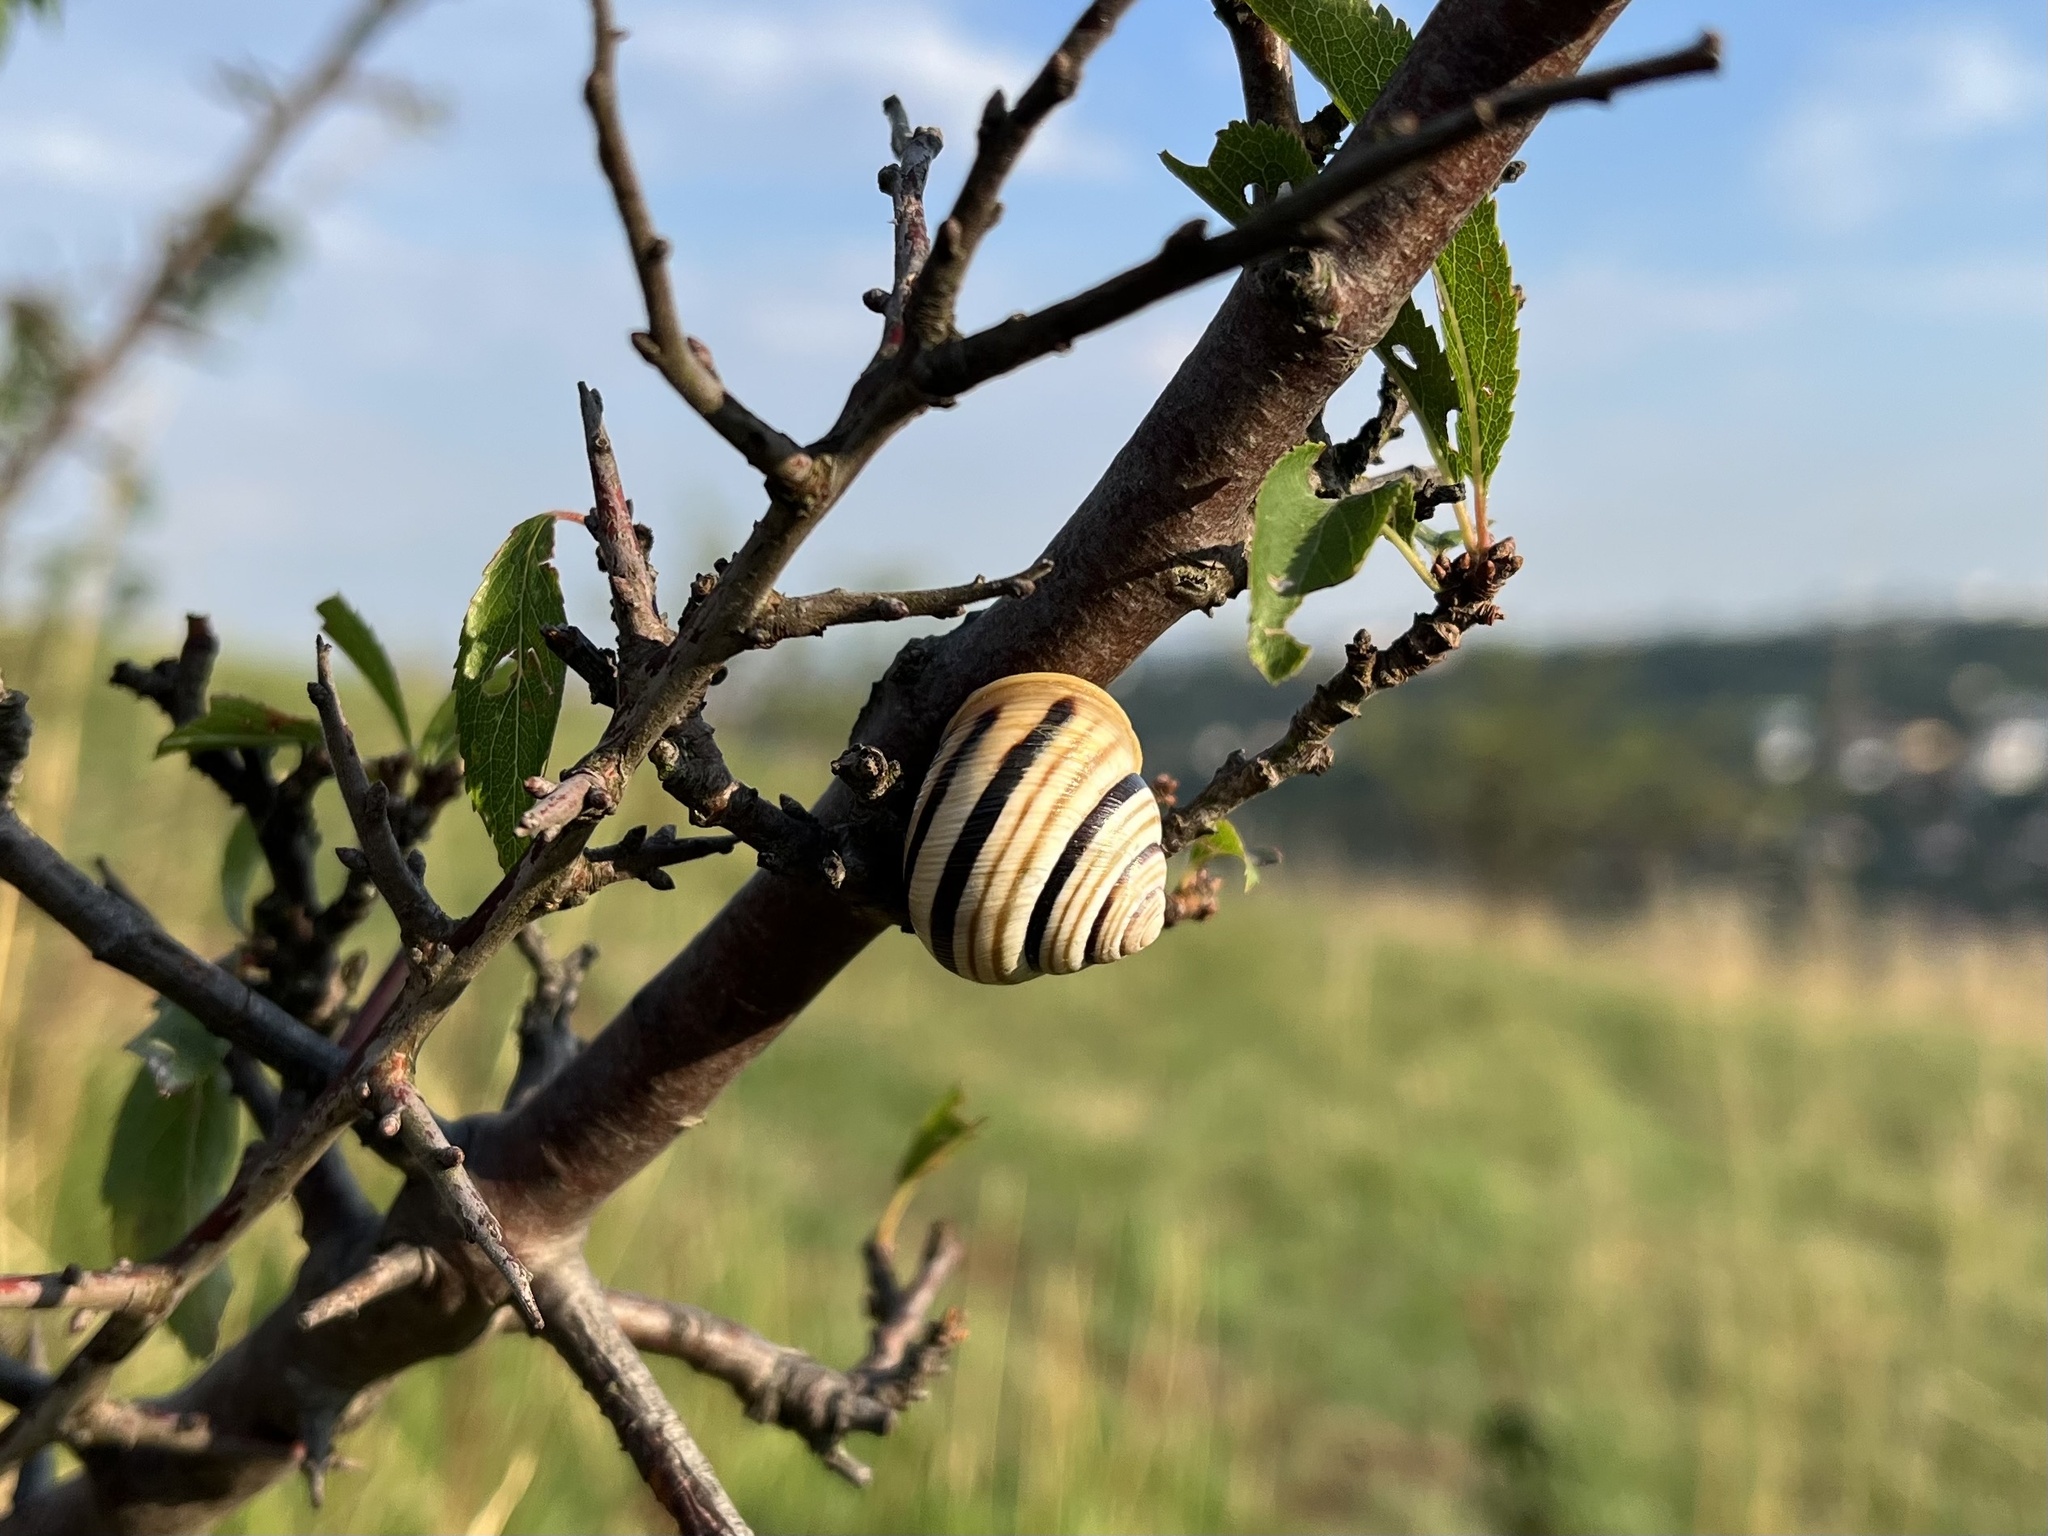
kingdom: Animalia
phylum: Mollusca
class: Gastropoda
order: Stylommatophora
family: Helicidae
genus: Caucasotachea
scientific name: Caucasotachea vindobonensis
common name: European helicid land snail
